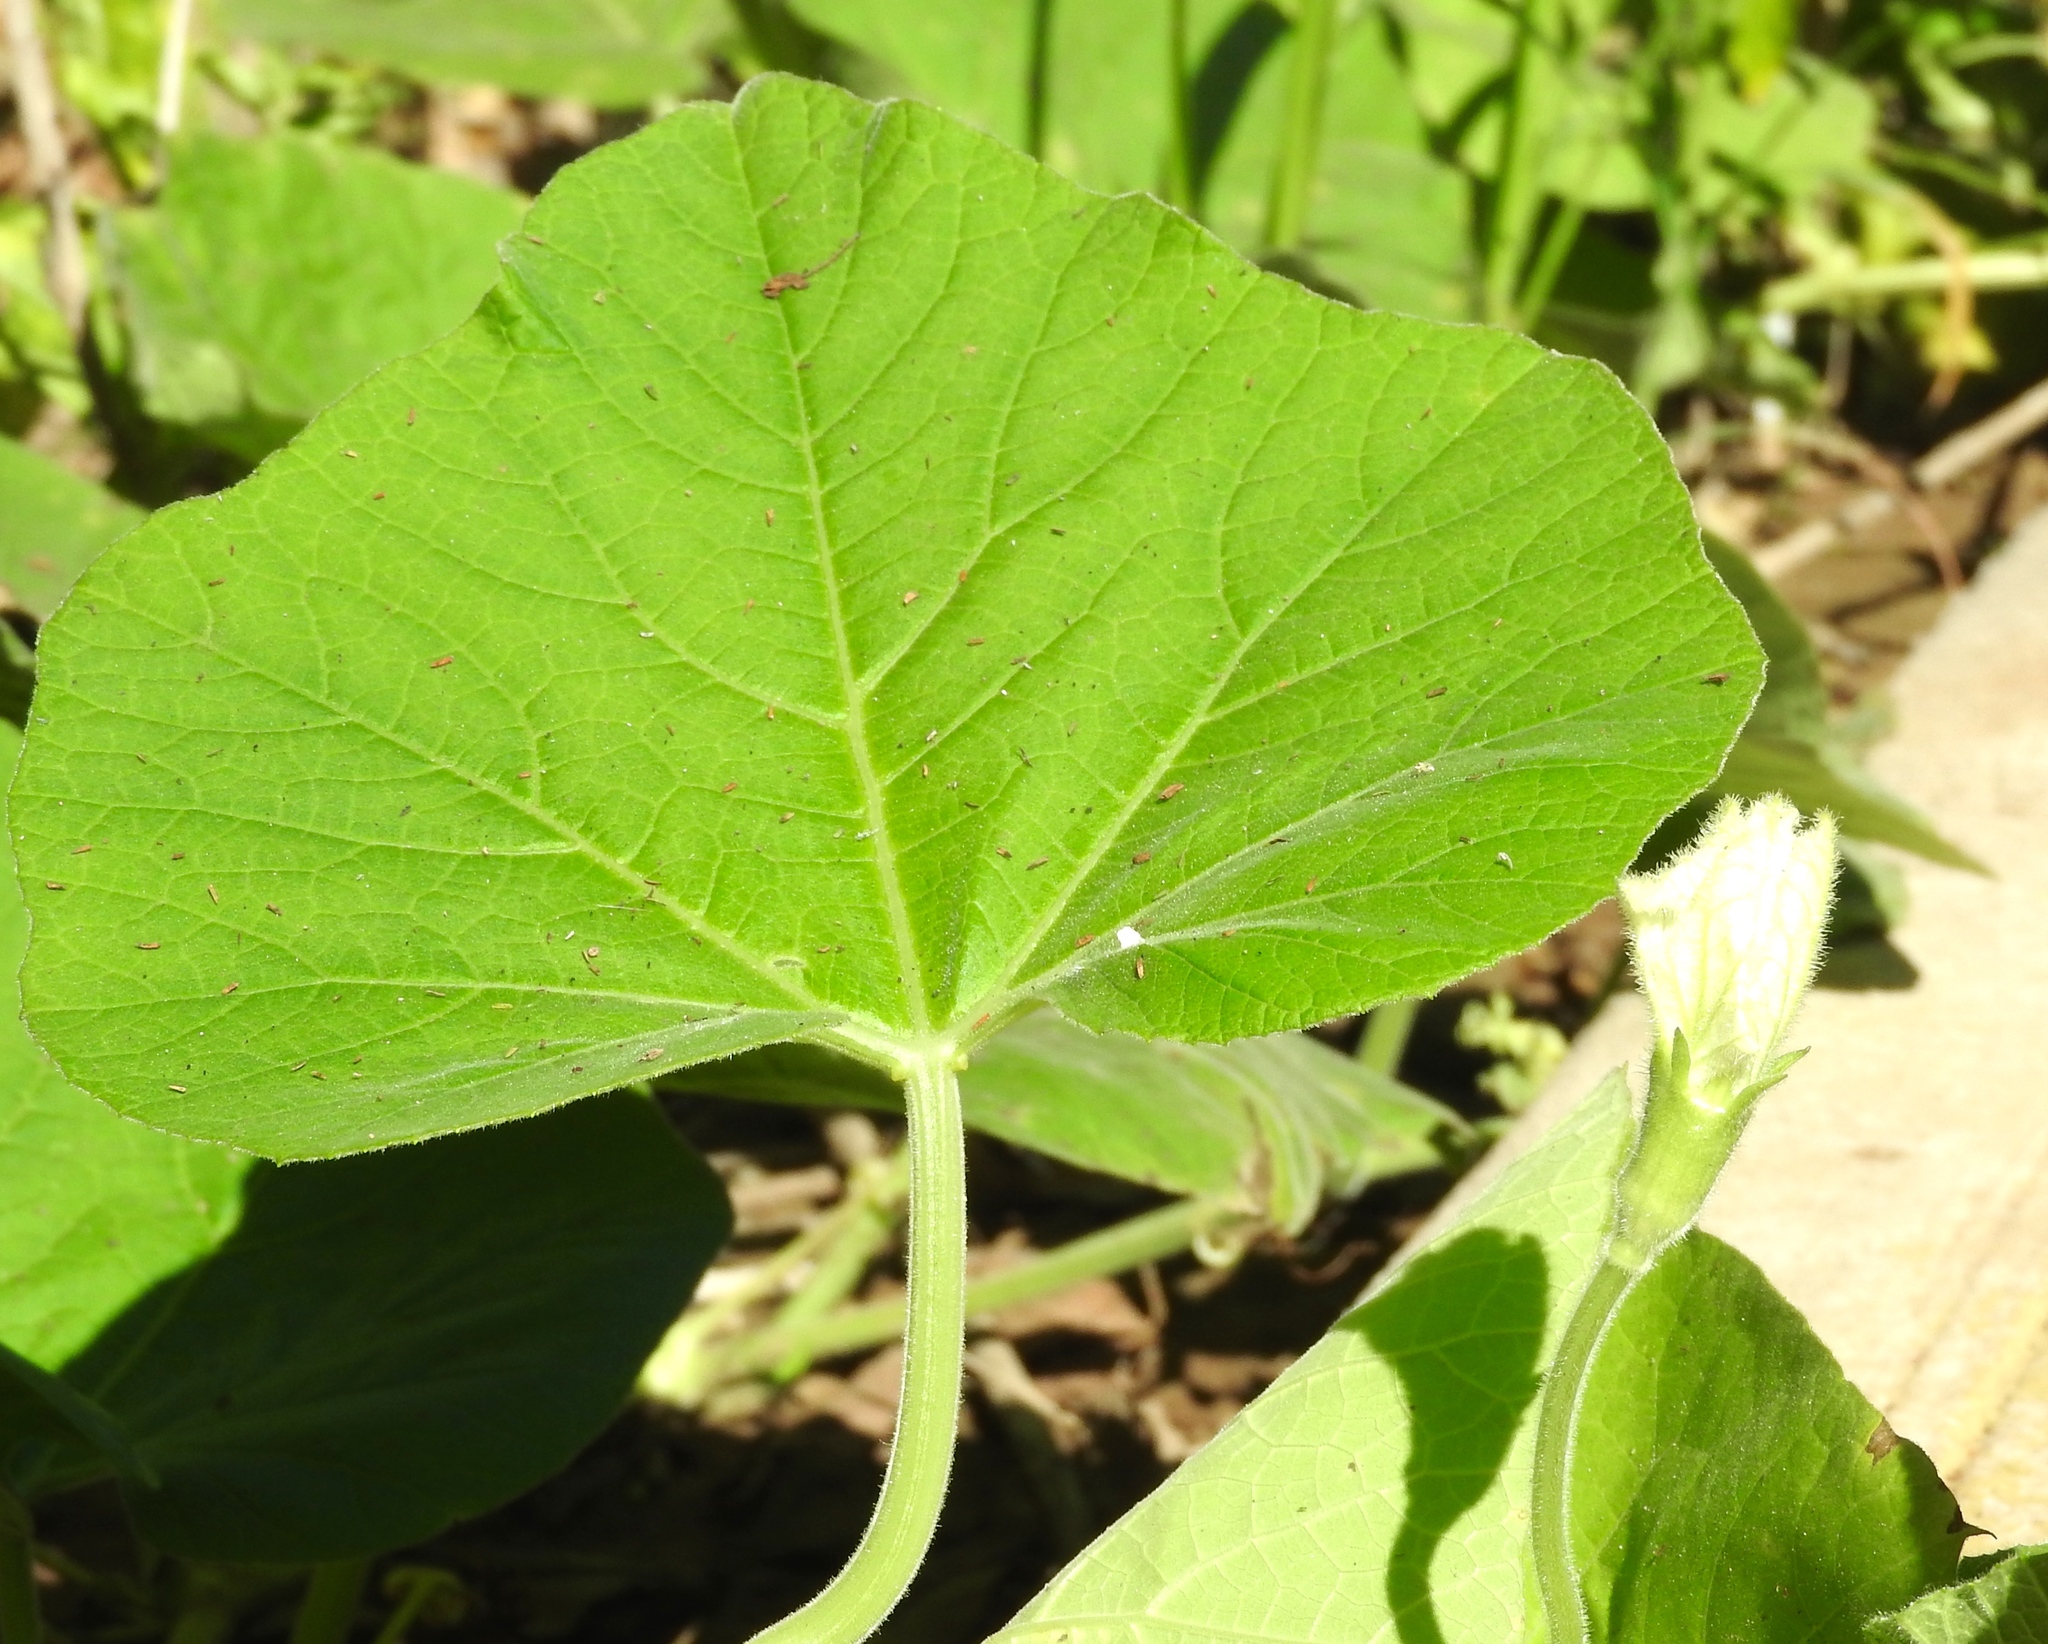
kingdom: Plantae
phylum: Tracheophyta
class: Magnoliopsida
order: Cucurbitales
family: Cucurbitaceae
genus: Lagenaria
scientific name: Lagenaria siceraria
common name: Bottle gourd
